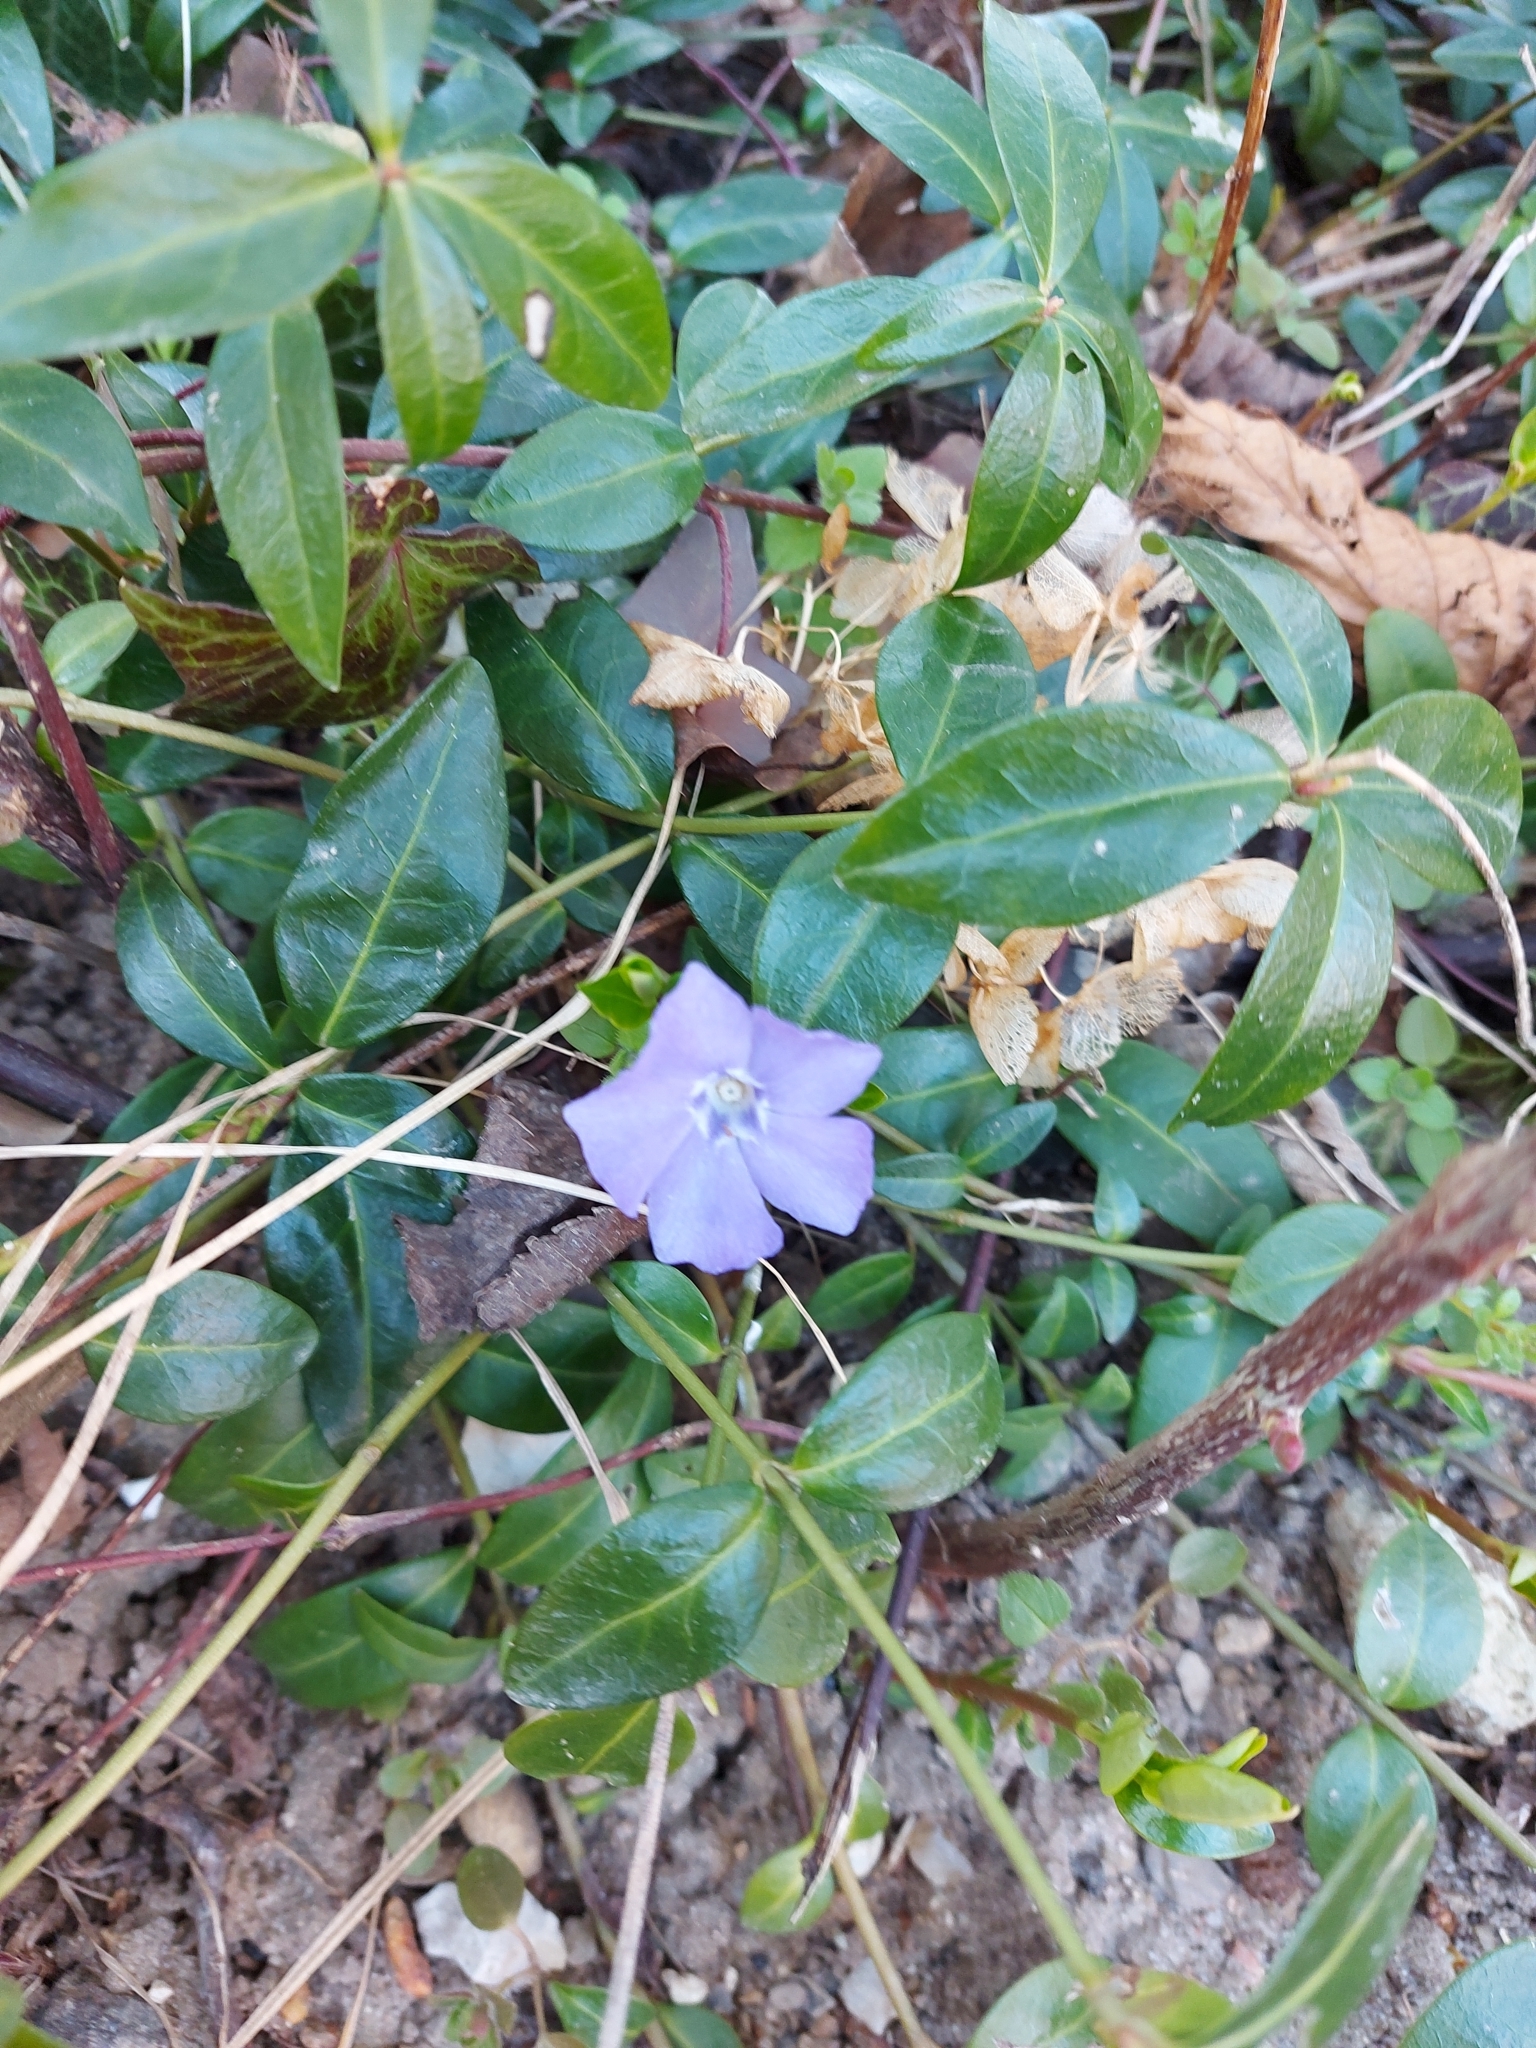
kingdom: Plantae
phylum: Tracheophyta
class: Magnoliopsida
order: Gentianales
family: Apocynaceae
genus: Vinca
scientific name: Vinca minor
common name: Lesser periwinkle
